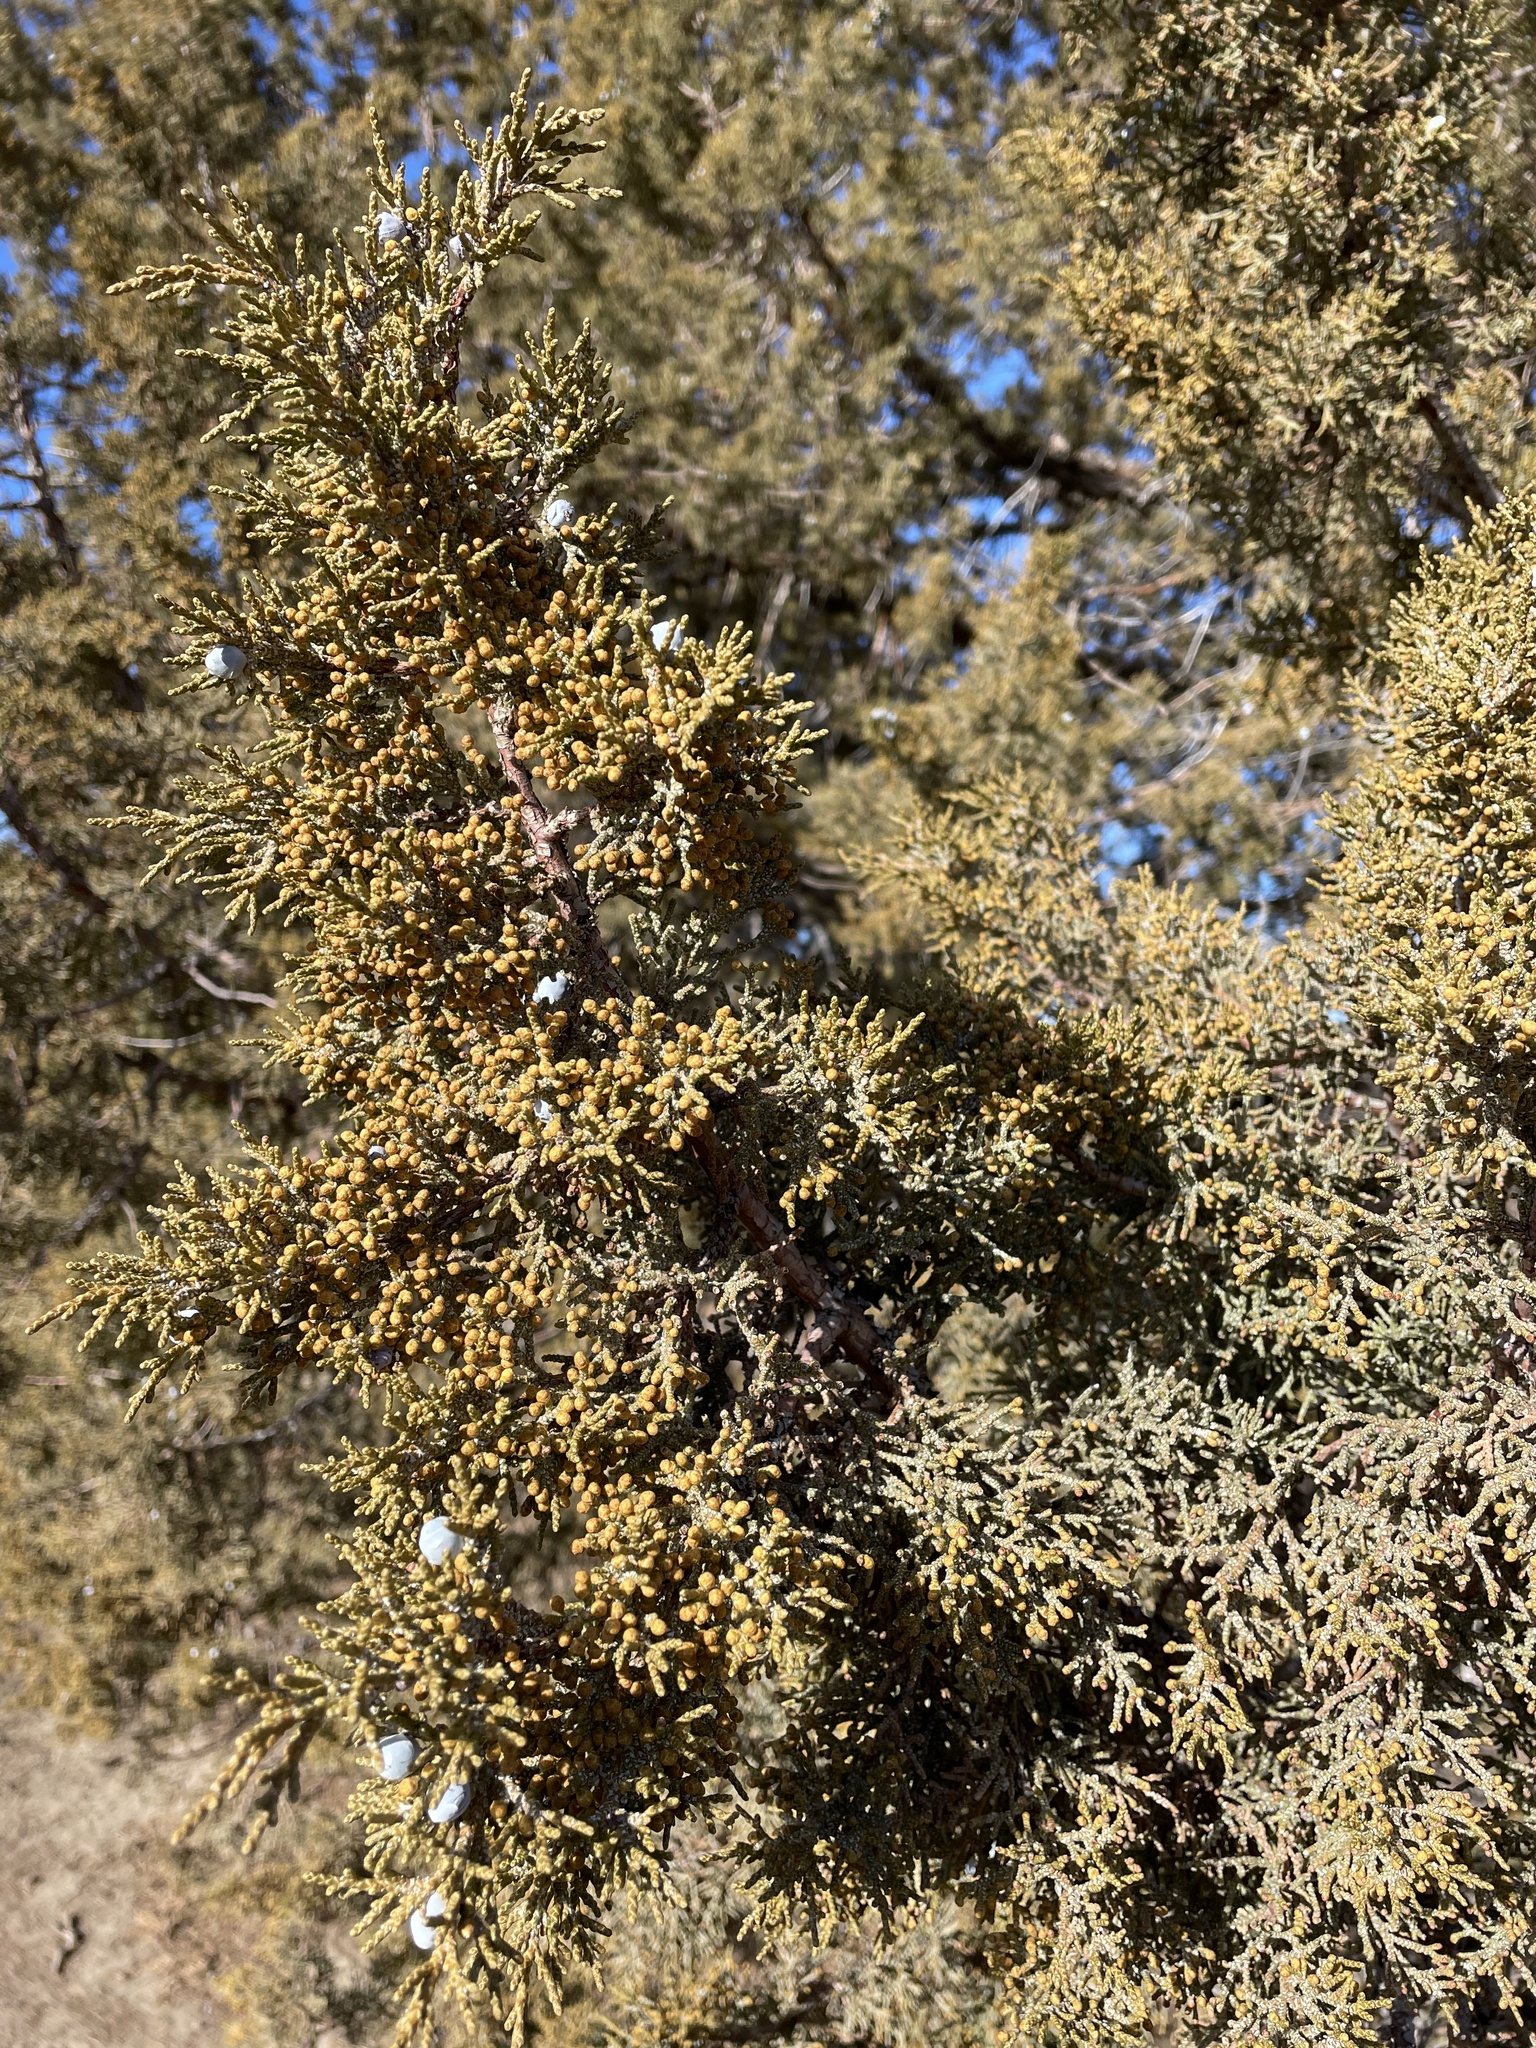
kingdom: Plantae
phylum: Tracheophyta
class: Pinopsida
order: Pinales
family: Cupressaceae
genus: Juniperus
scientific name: Juniperus occidentalis
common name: Western juniper
